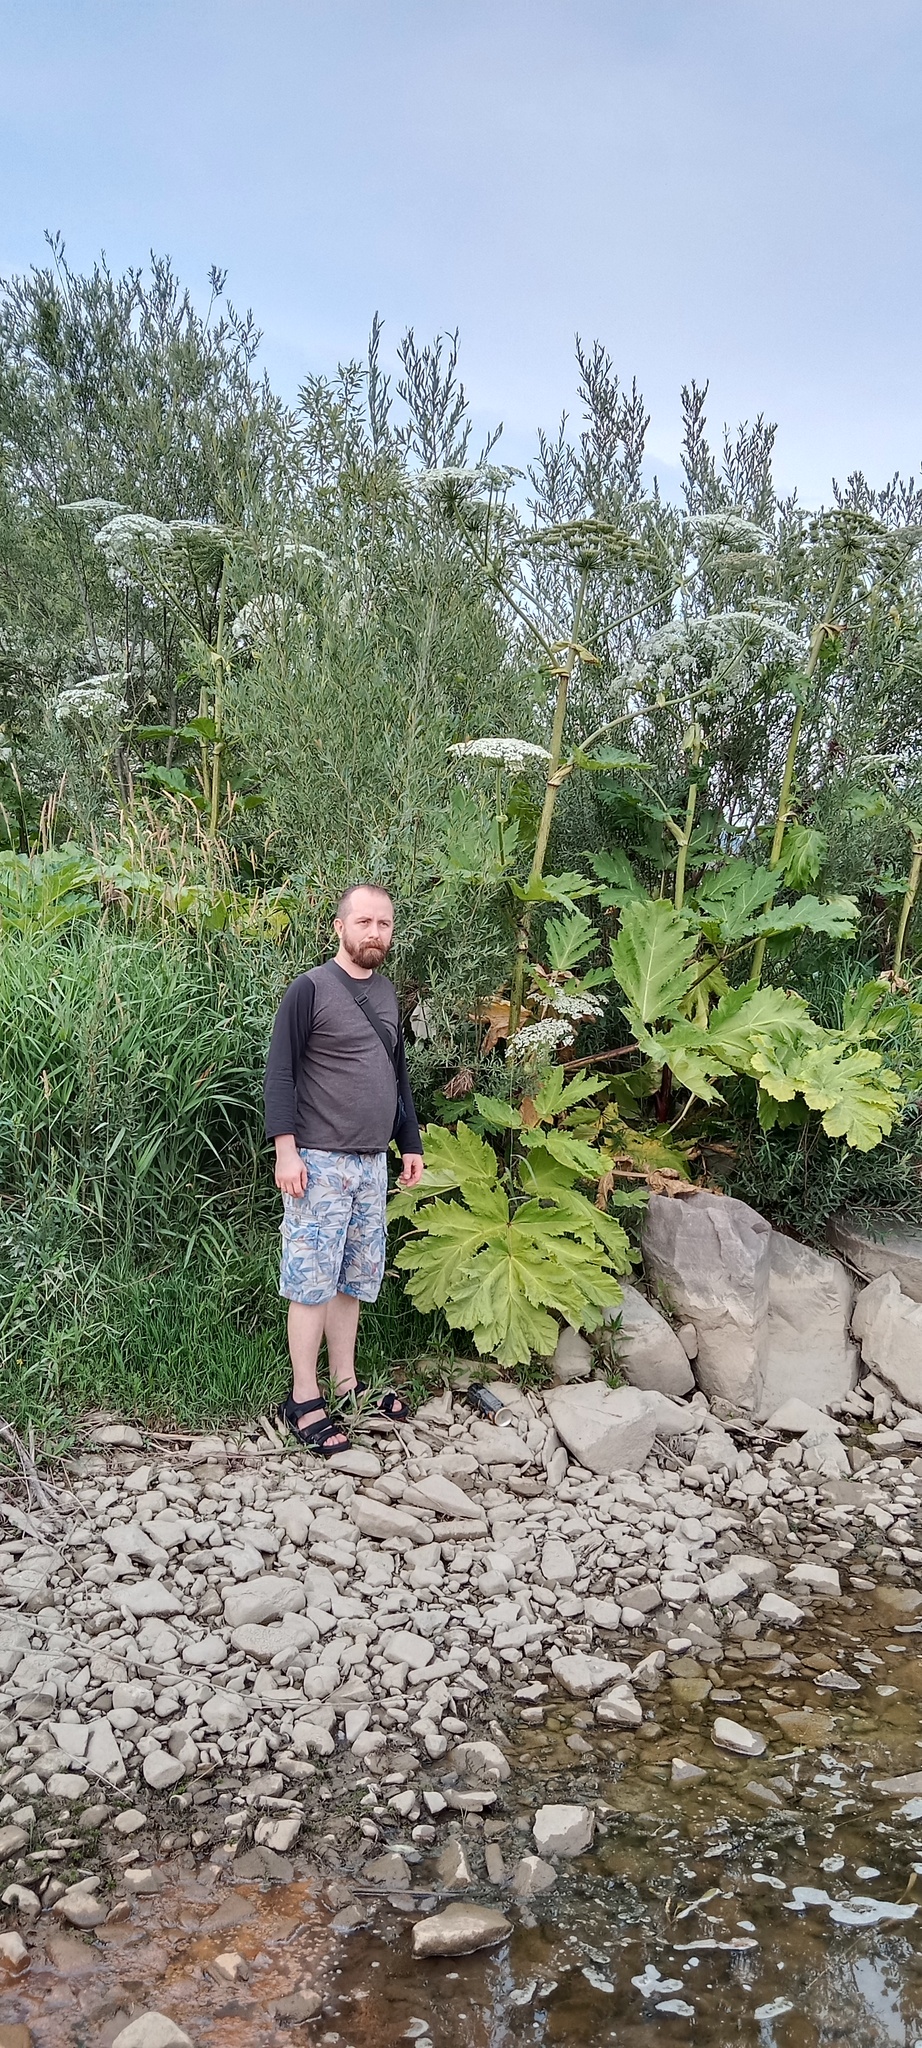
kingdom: Plantae
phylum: Tracheophyta
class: Magnoliopsida
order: Apiales
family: Apiaceae
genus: Heracleum
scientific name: Heracleum sosnowskyi
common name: Sosnowsky's hogweed
